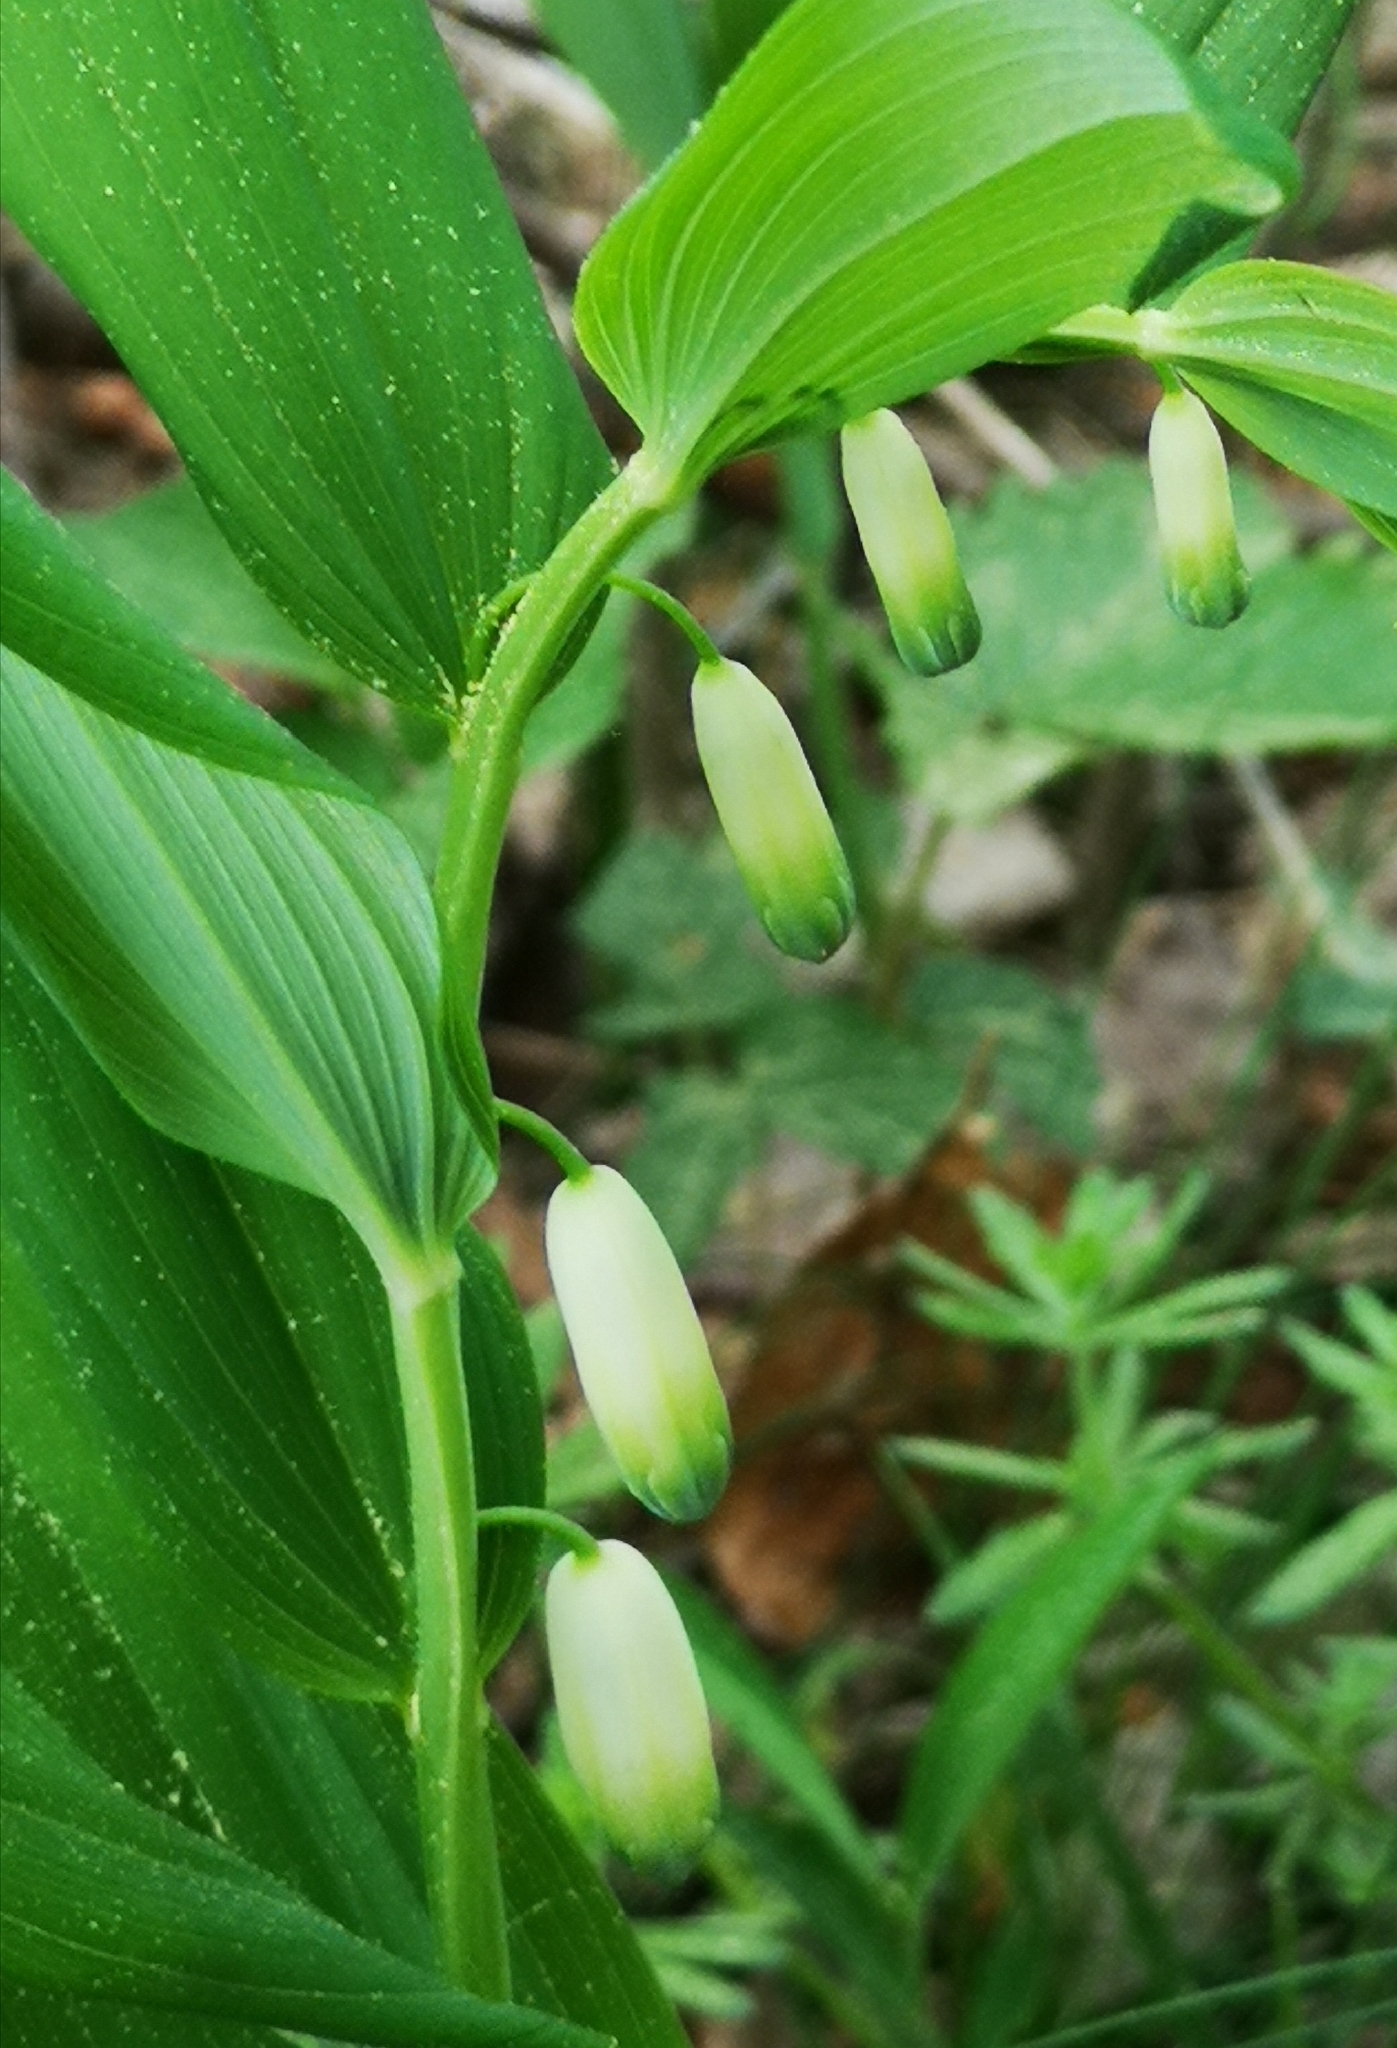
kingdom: Plantae
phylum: Tracheophyta
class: Liliopsida
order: Asparagales
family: Asparagaceae
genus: Polygonatum
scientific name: Polygonatum odoratum
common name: Angular solomon's-seal
